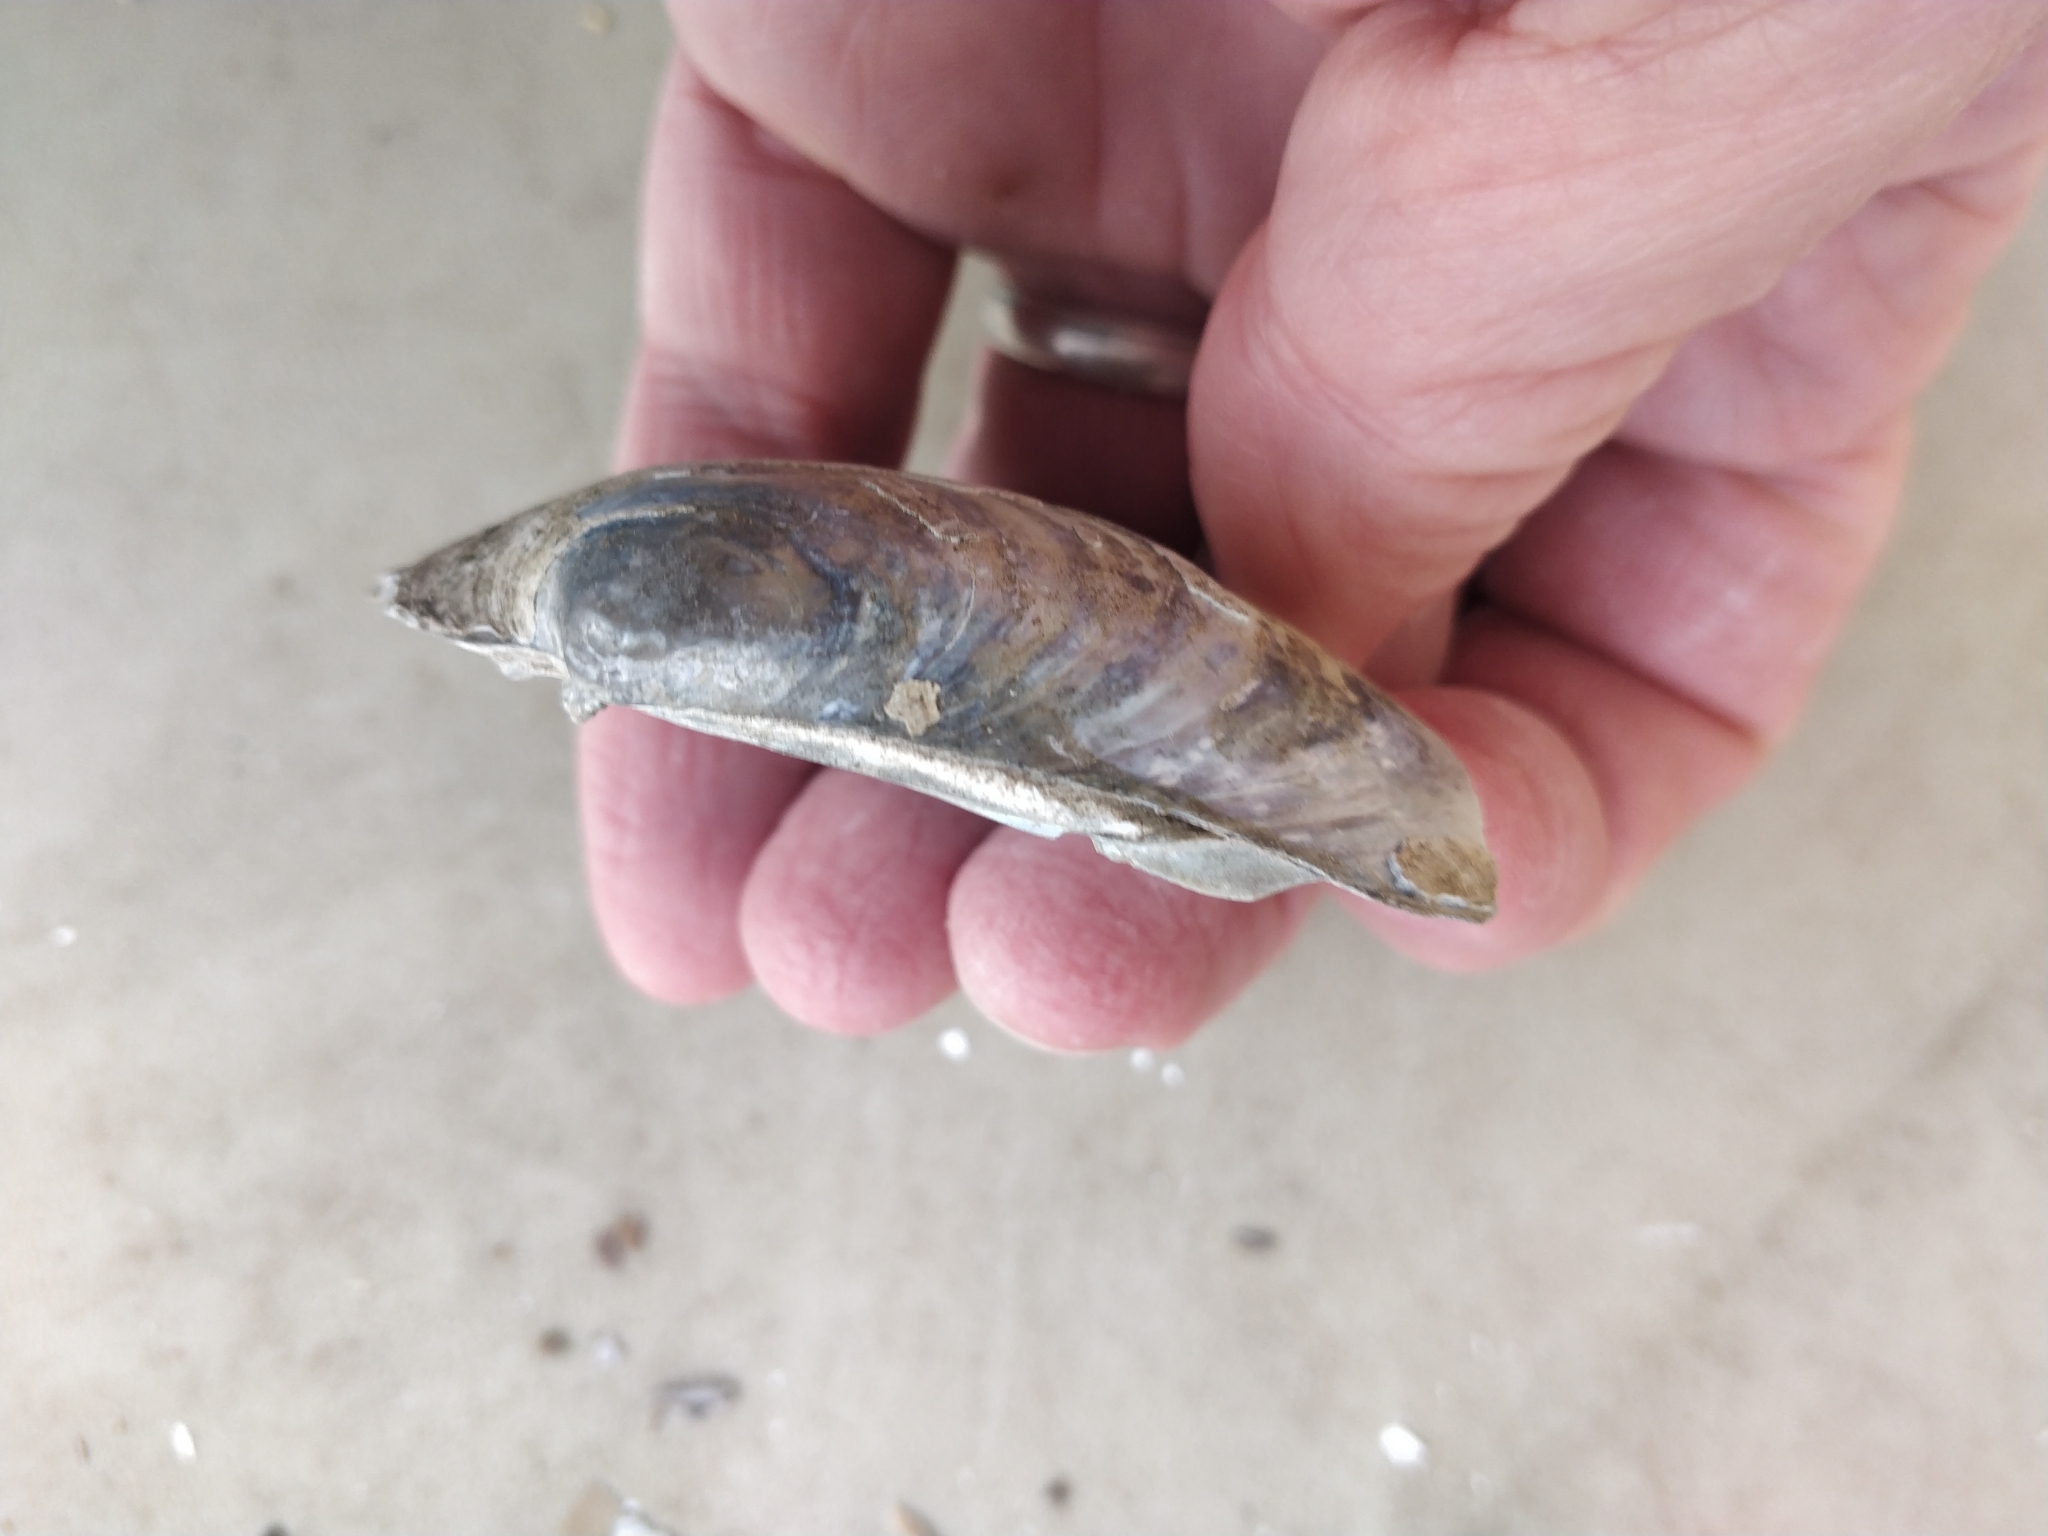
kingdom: Animalia
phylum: Mollusca
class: Bivalvia
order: Unionida
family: Unionidae
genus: Lampsilis
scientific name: Lampsilis cardium
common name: Plain pocketbook
